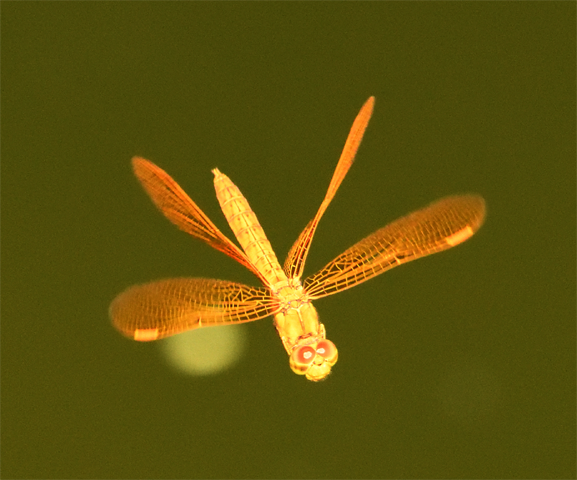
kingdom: Animalia
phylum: Arthropoda
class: Insecta
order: Odonata
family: Libellulidae
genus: Perithemis
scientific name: Perithemis intensa
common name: Mexican amberwing
